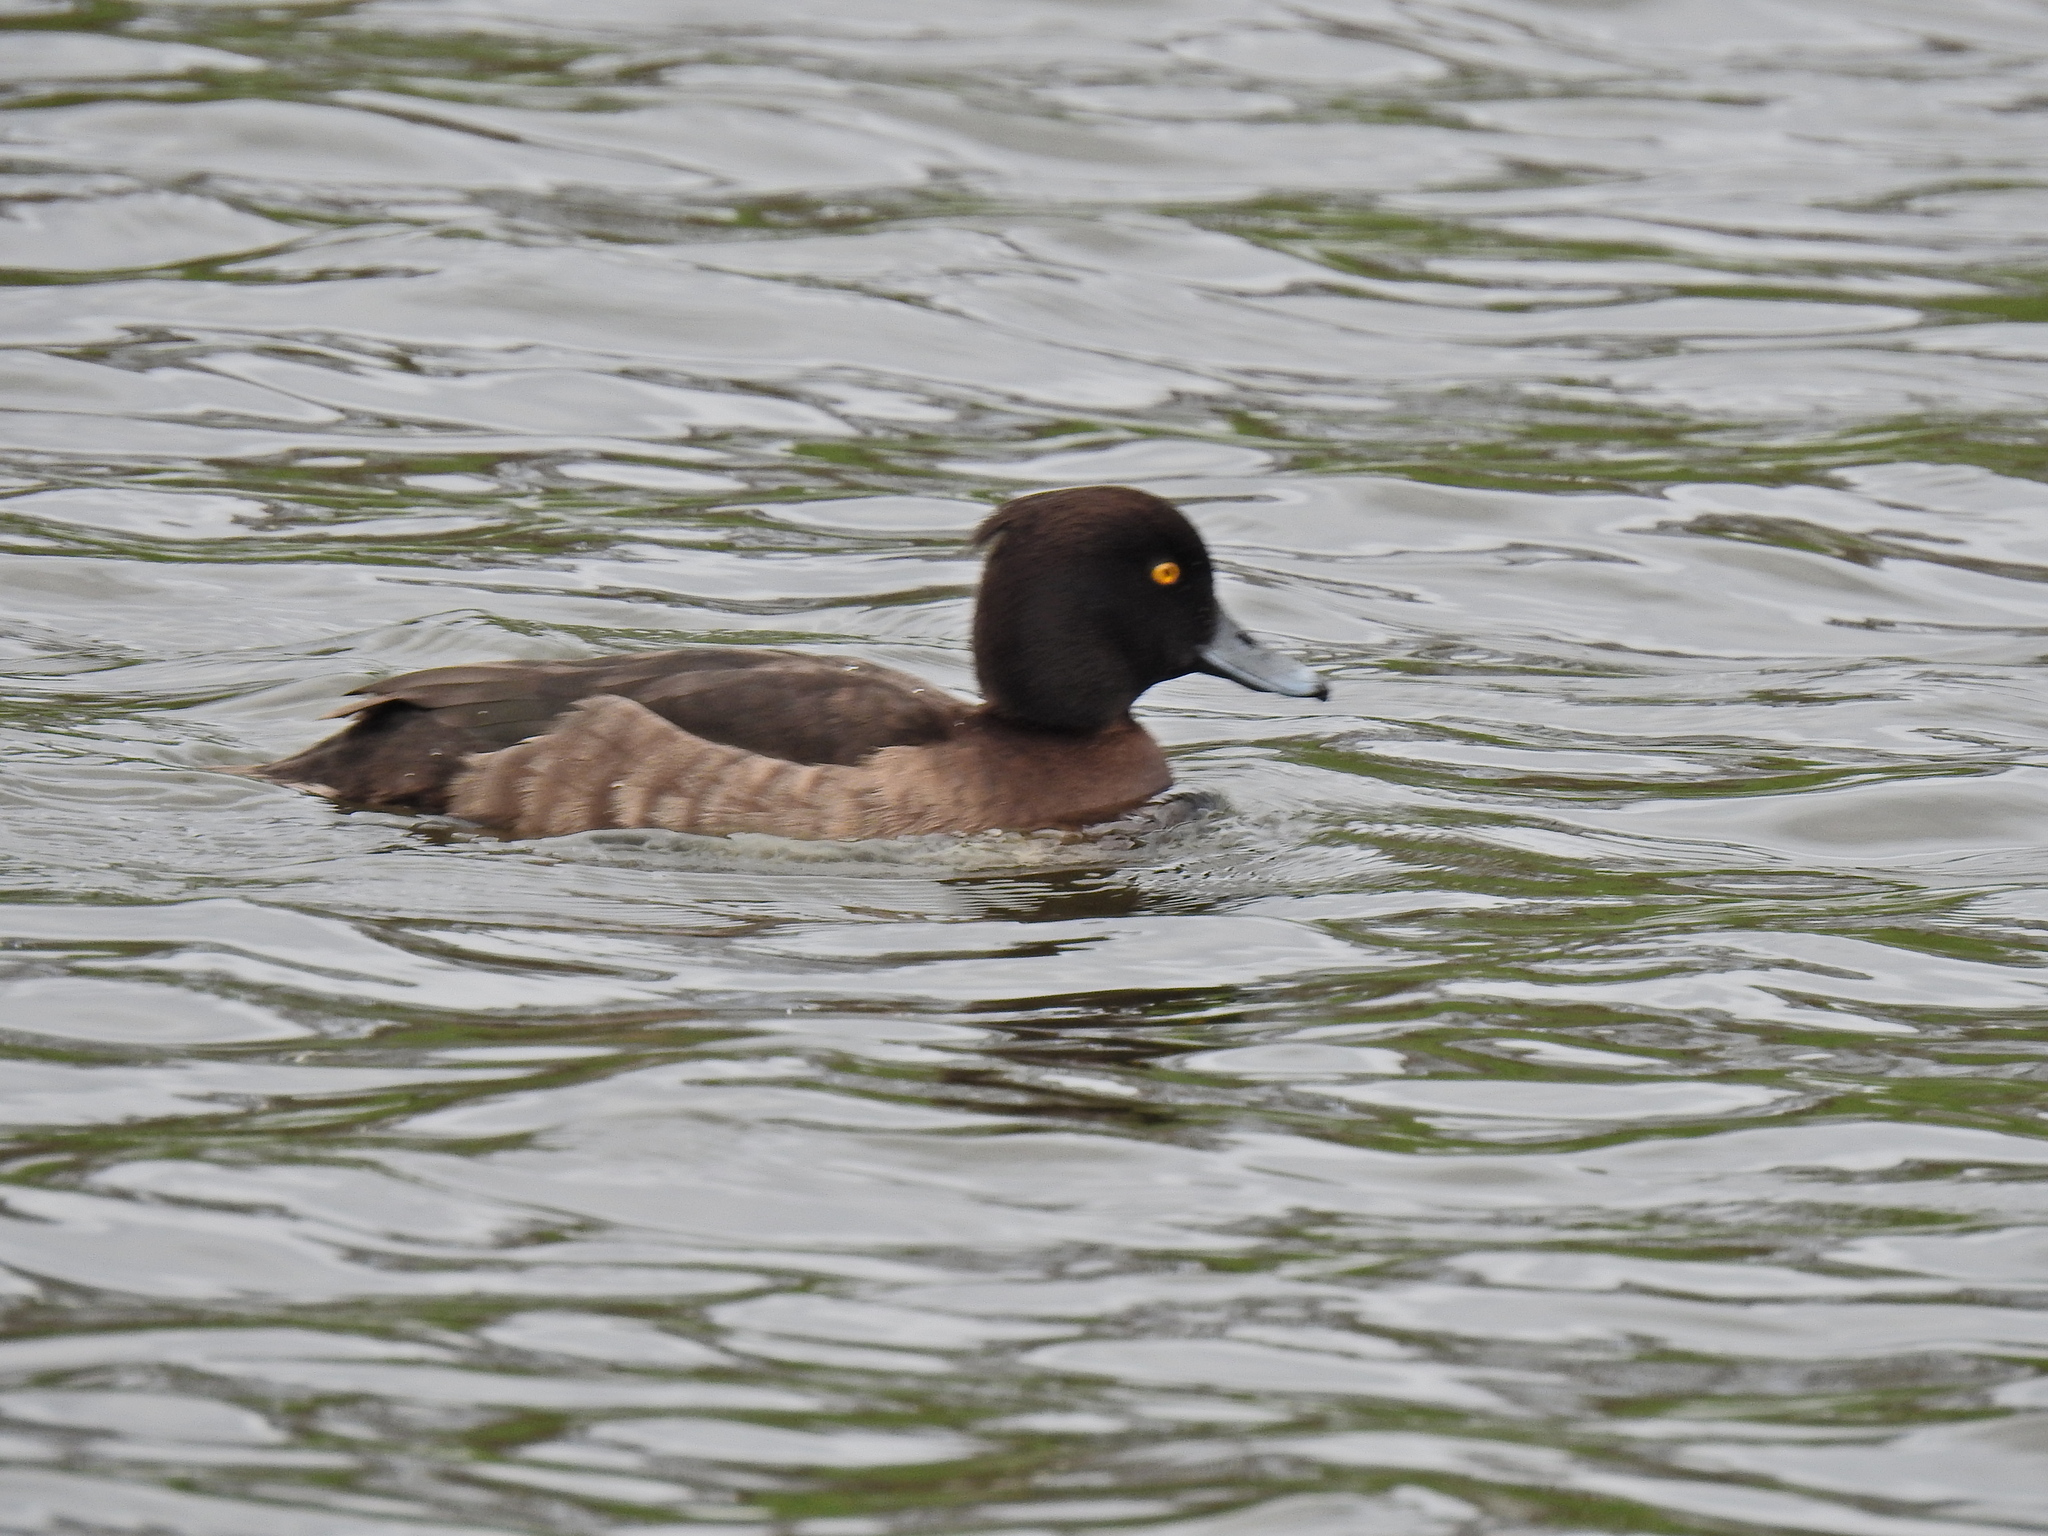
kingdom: Animalia
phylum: Chordata
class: Aves
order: Anseriformes
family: Anatidae
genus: Aythya
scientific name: Aythya fuligula
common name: Tufted duck
